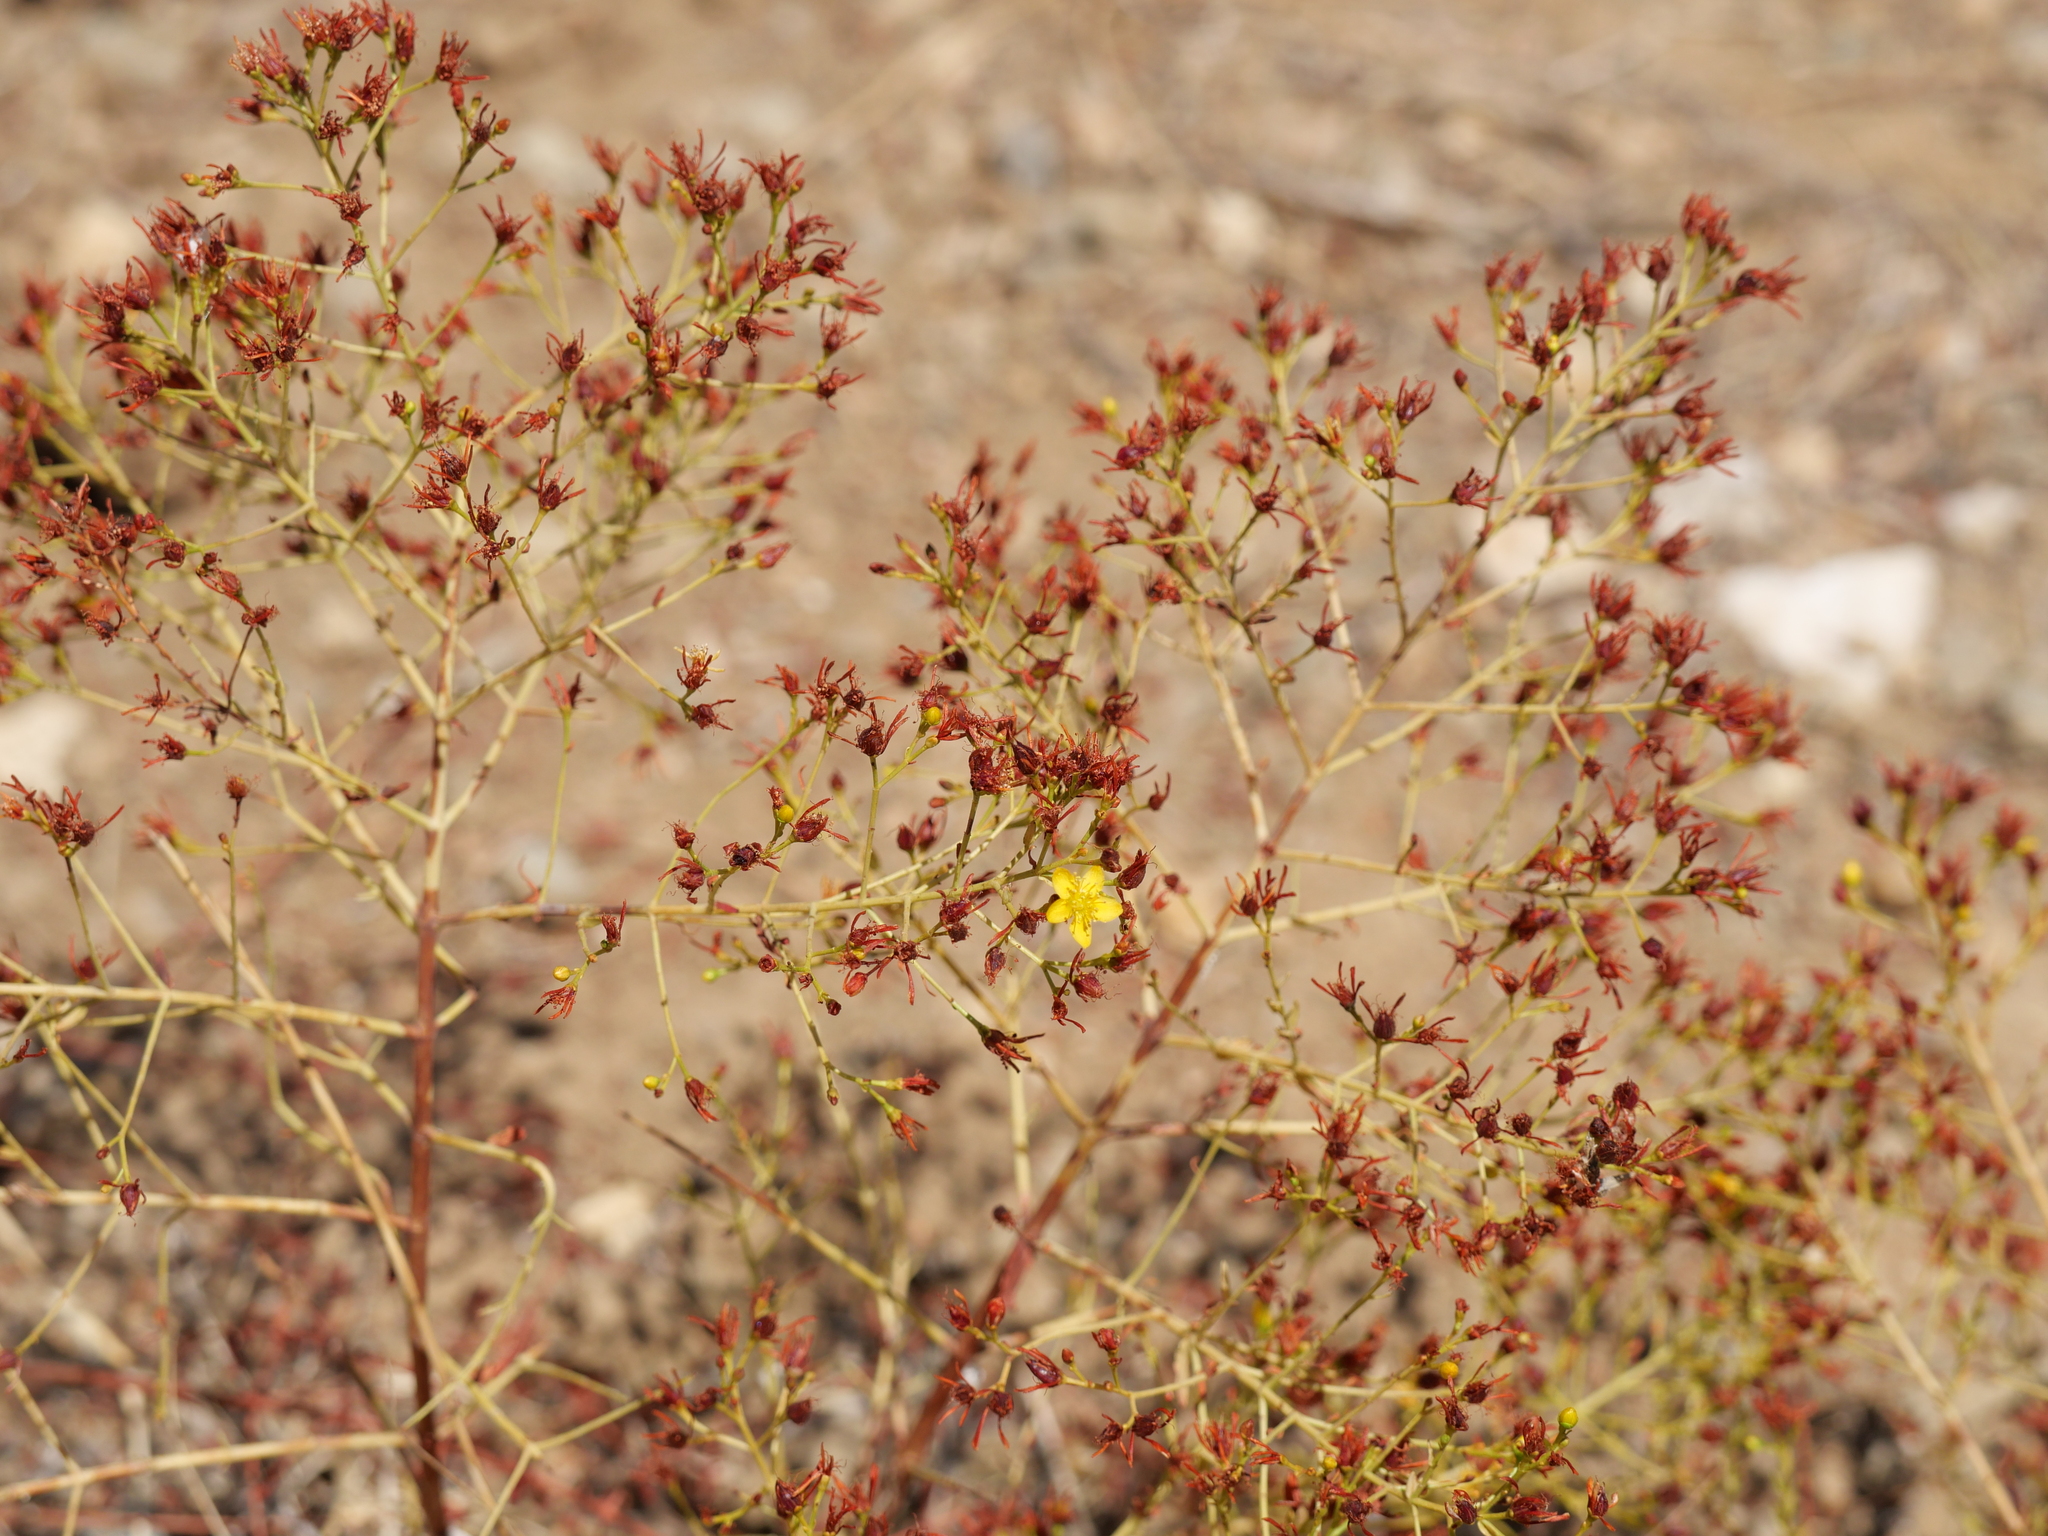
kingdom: Plantae
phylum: Tracheophyta
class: Magnoliopsida
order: Malpighiales
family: Hypericaceae
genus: Hypericum
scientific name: Hypericum triquetrifolium
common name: Tangled hypericum
